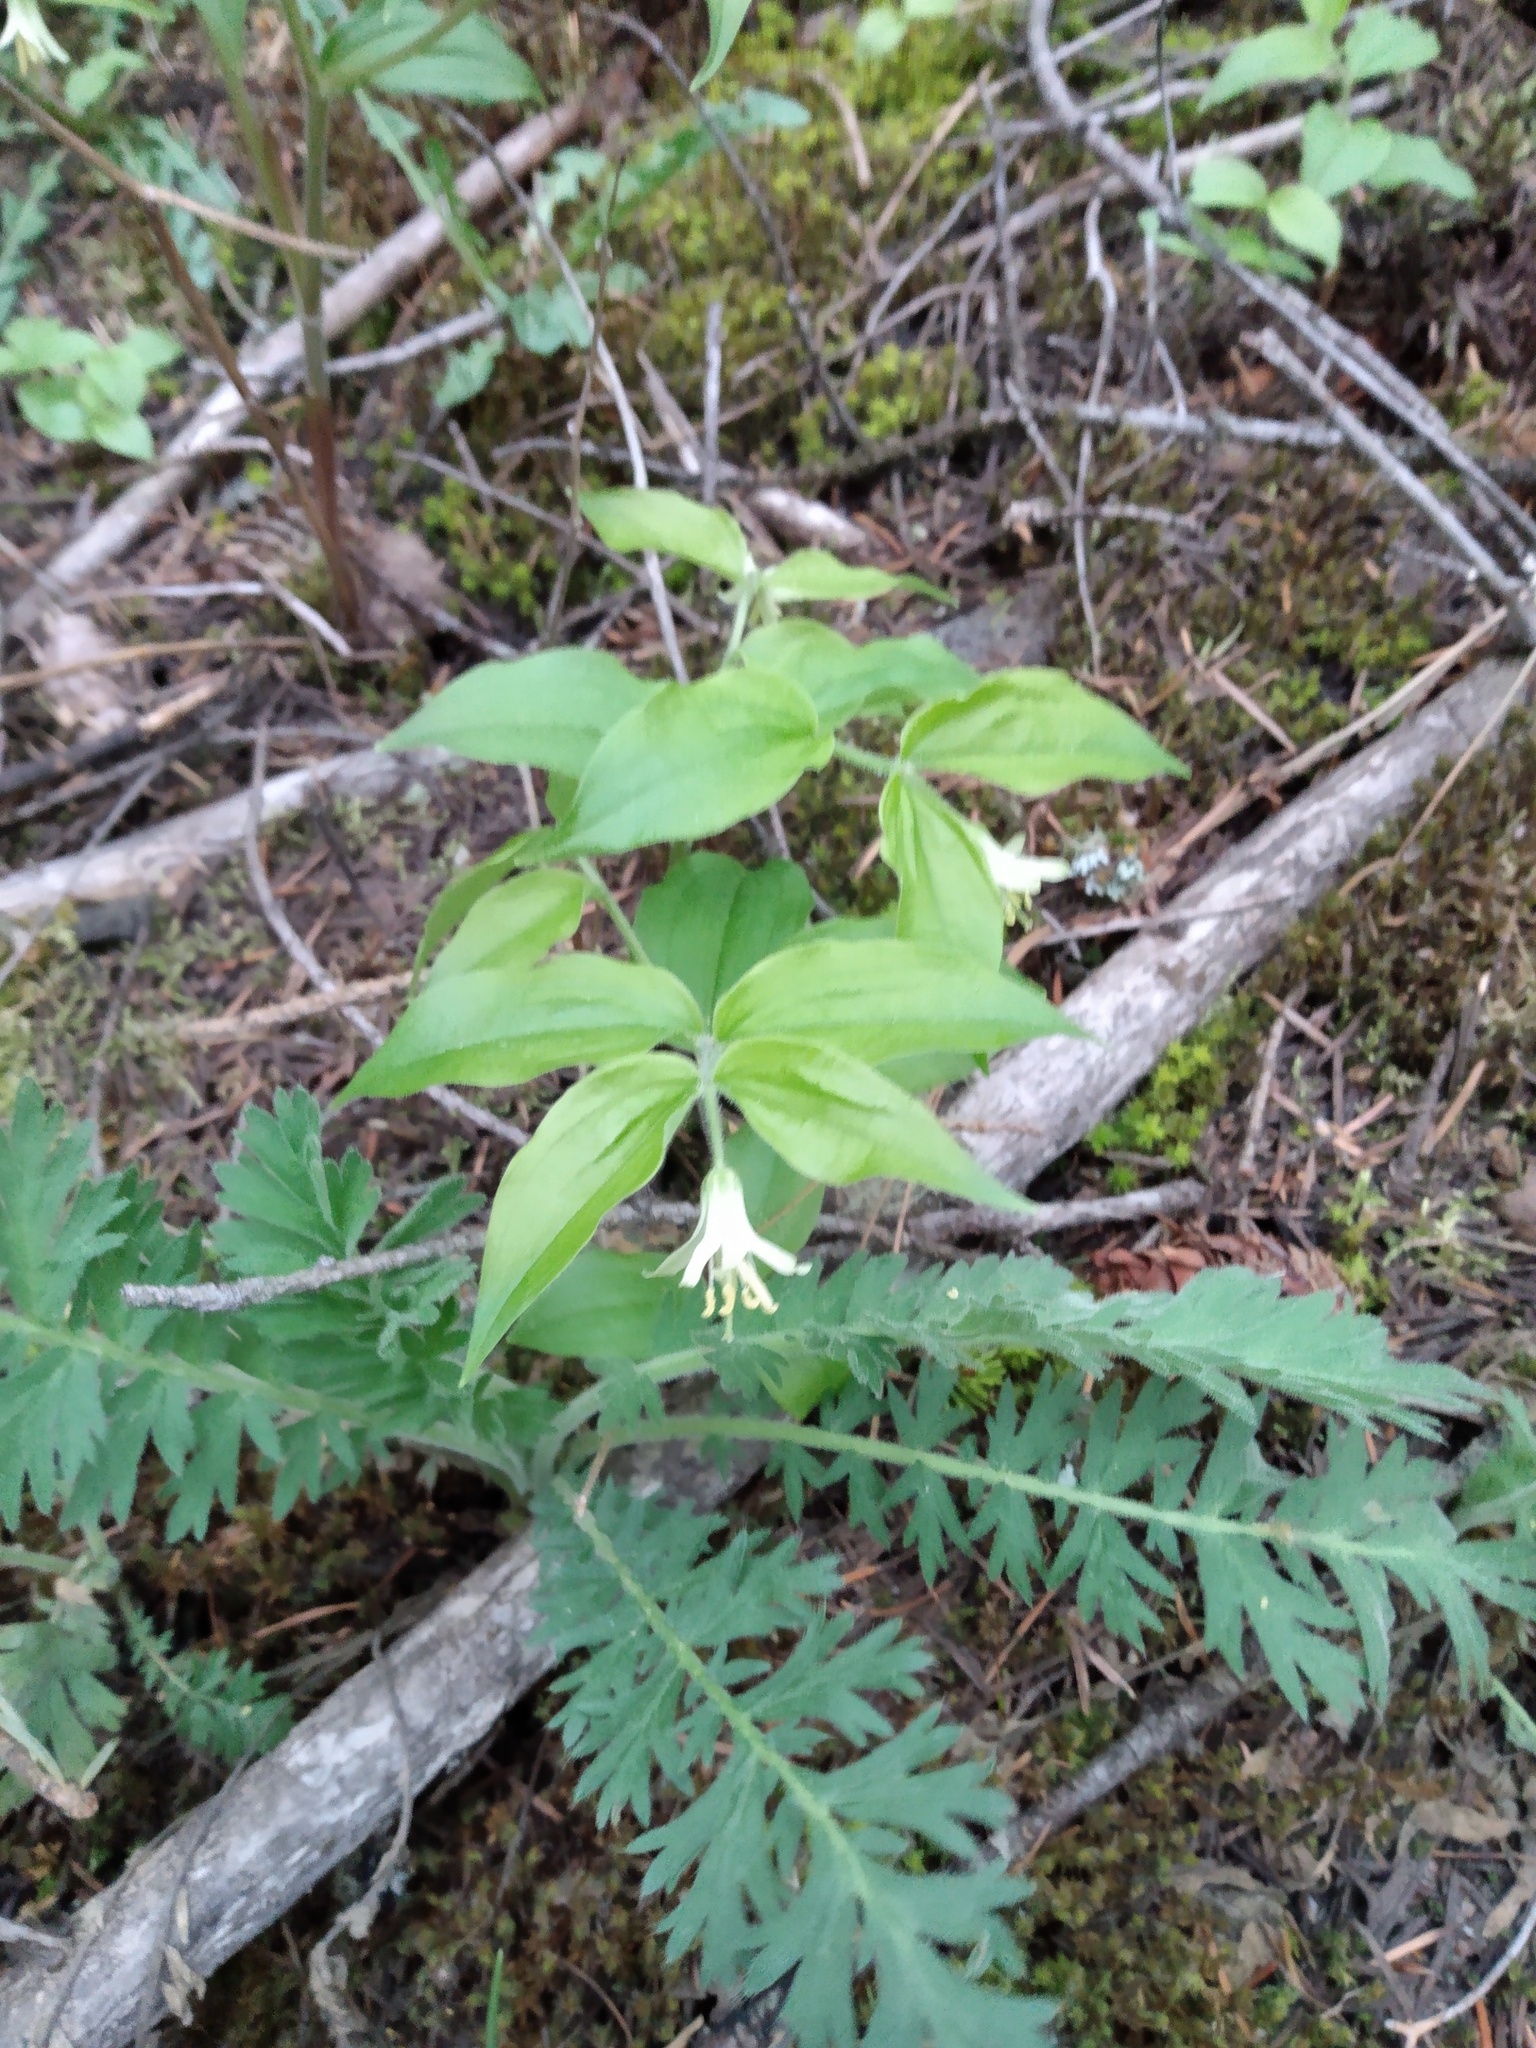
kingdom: Plantae
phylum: Tracheophyta
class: Liliopsida
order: Liliales
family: Liliaceae
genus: Prosartes
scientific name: Prosartes trachycarpa
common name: Rough-fruit fairy-bells
